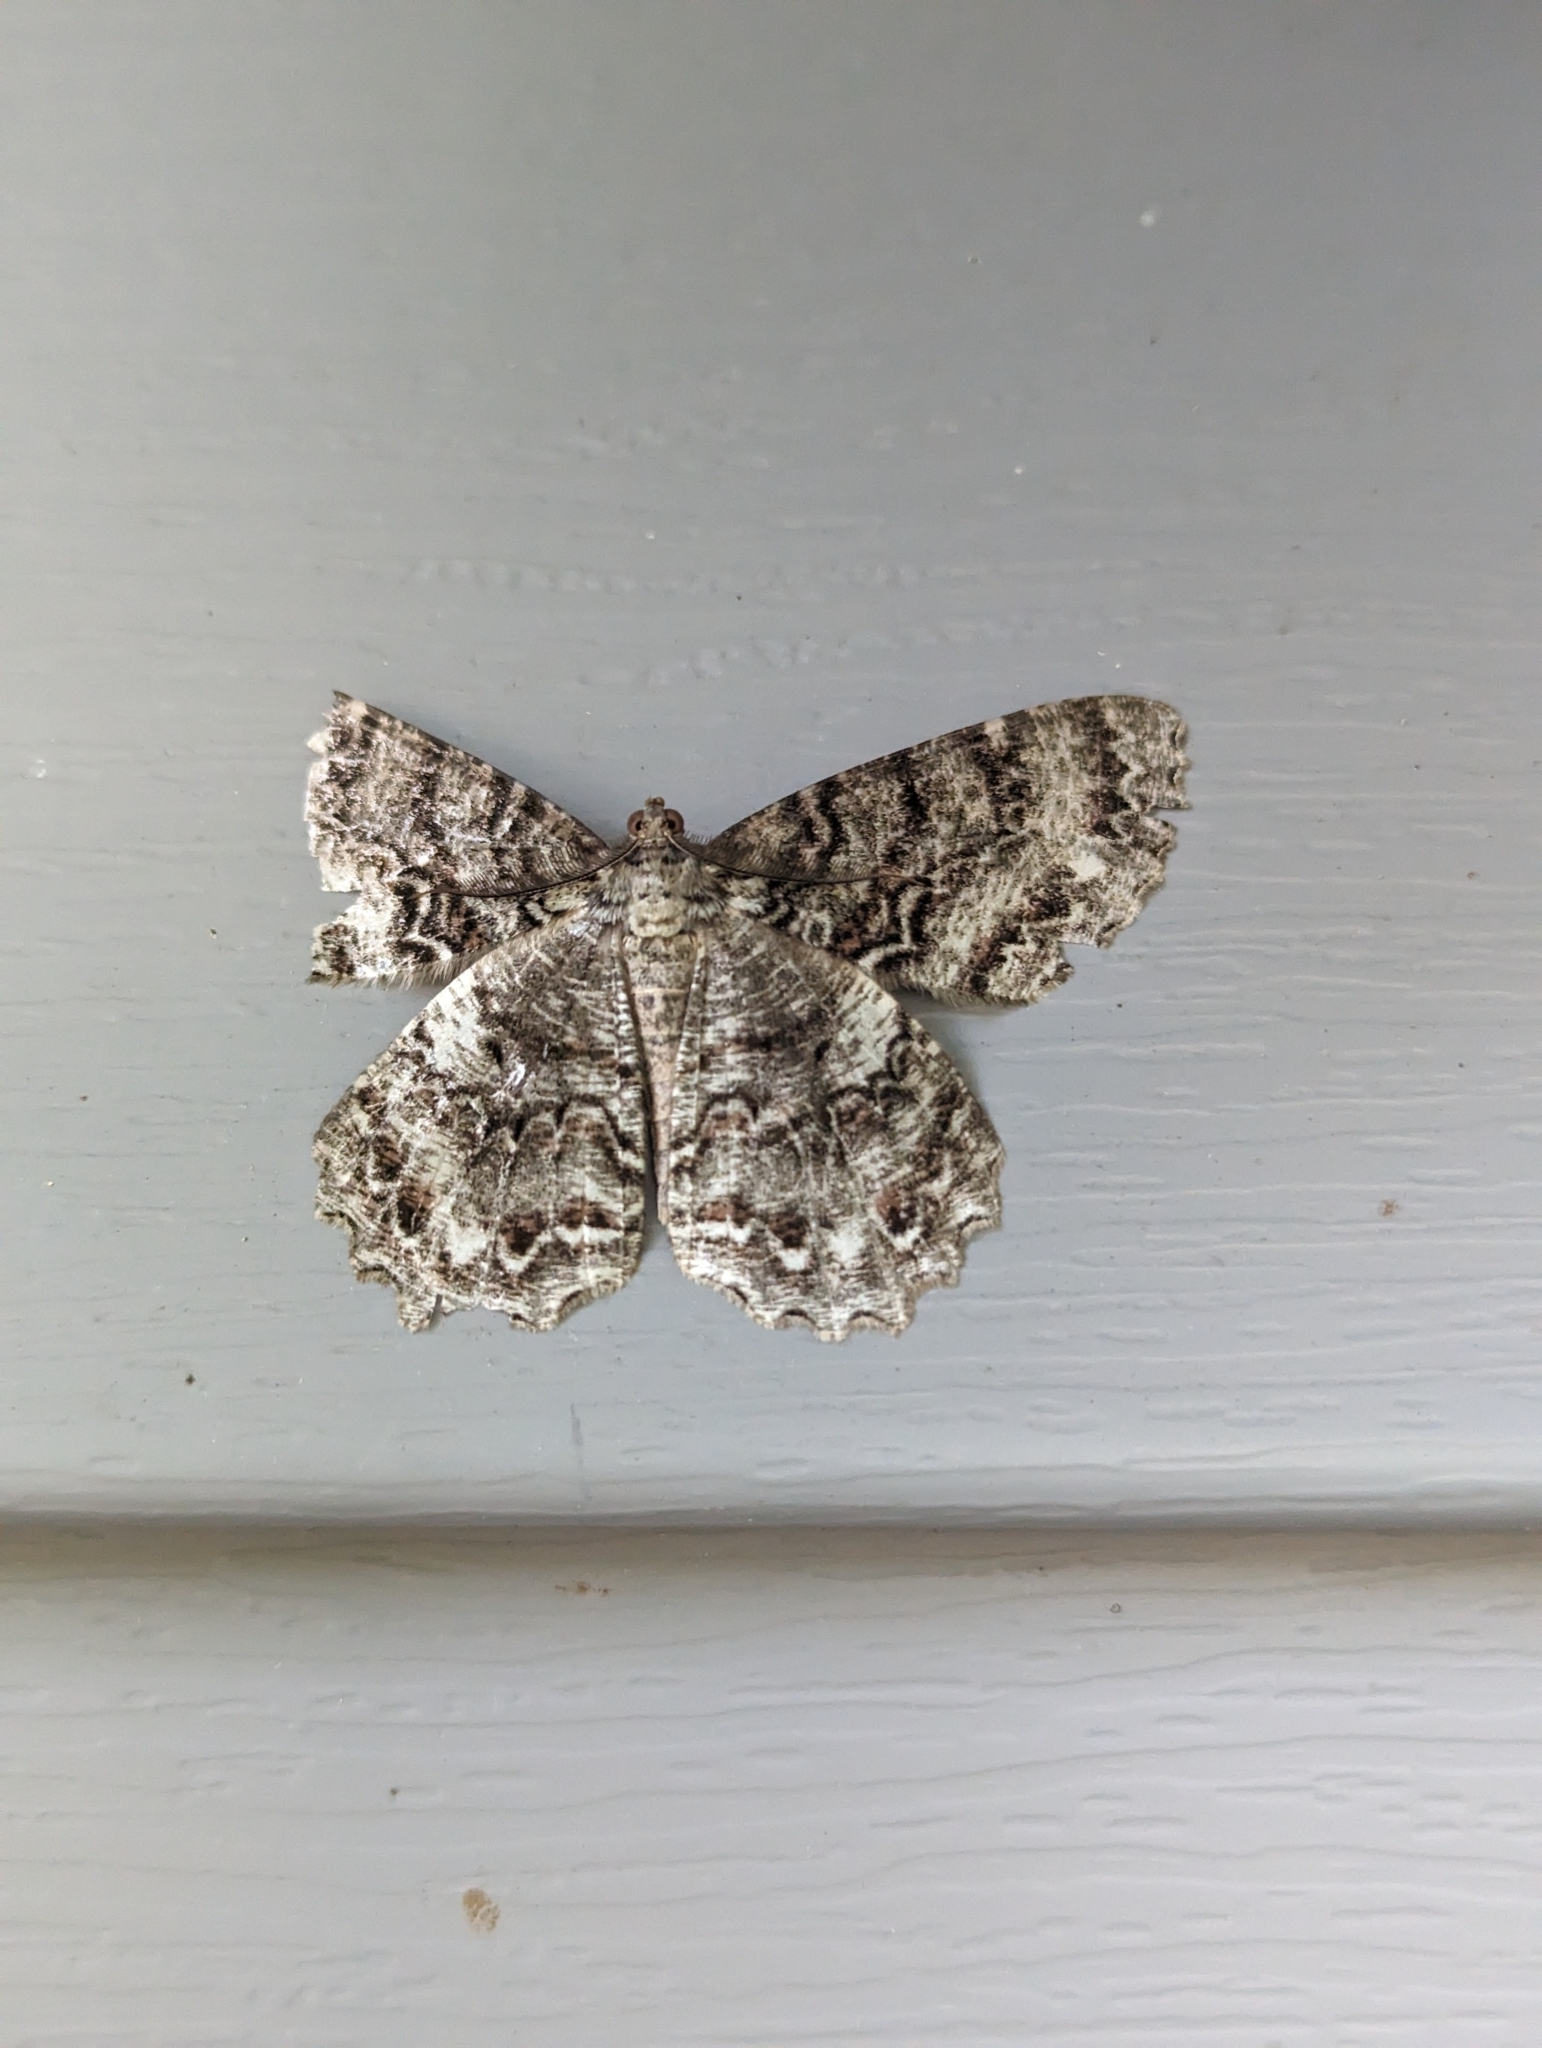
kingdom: Animalia
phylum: Arthropoda
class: Insecta
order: Lepidoptera
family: Geometridae
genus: Epimecis
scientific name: Epimecis hortaria
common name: Tulip-tree beauty
